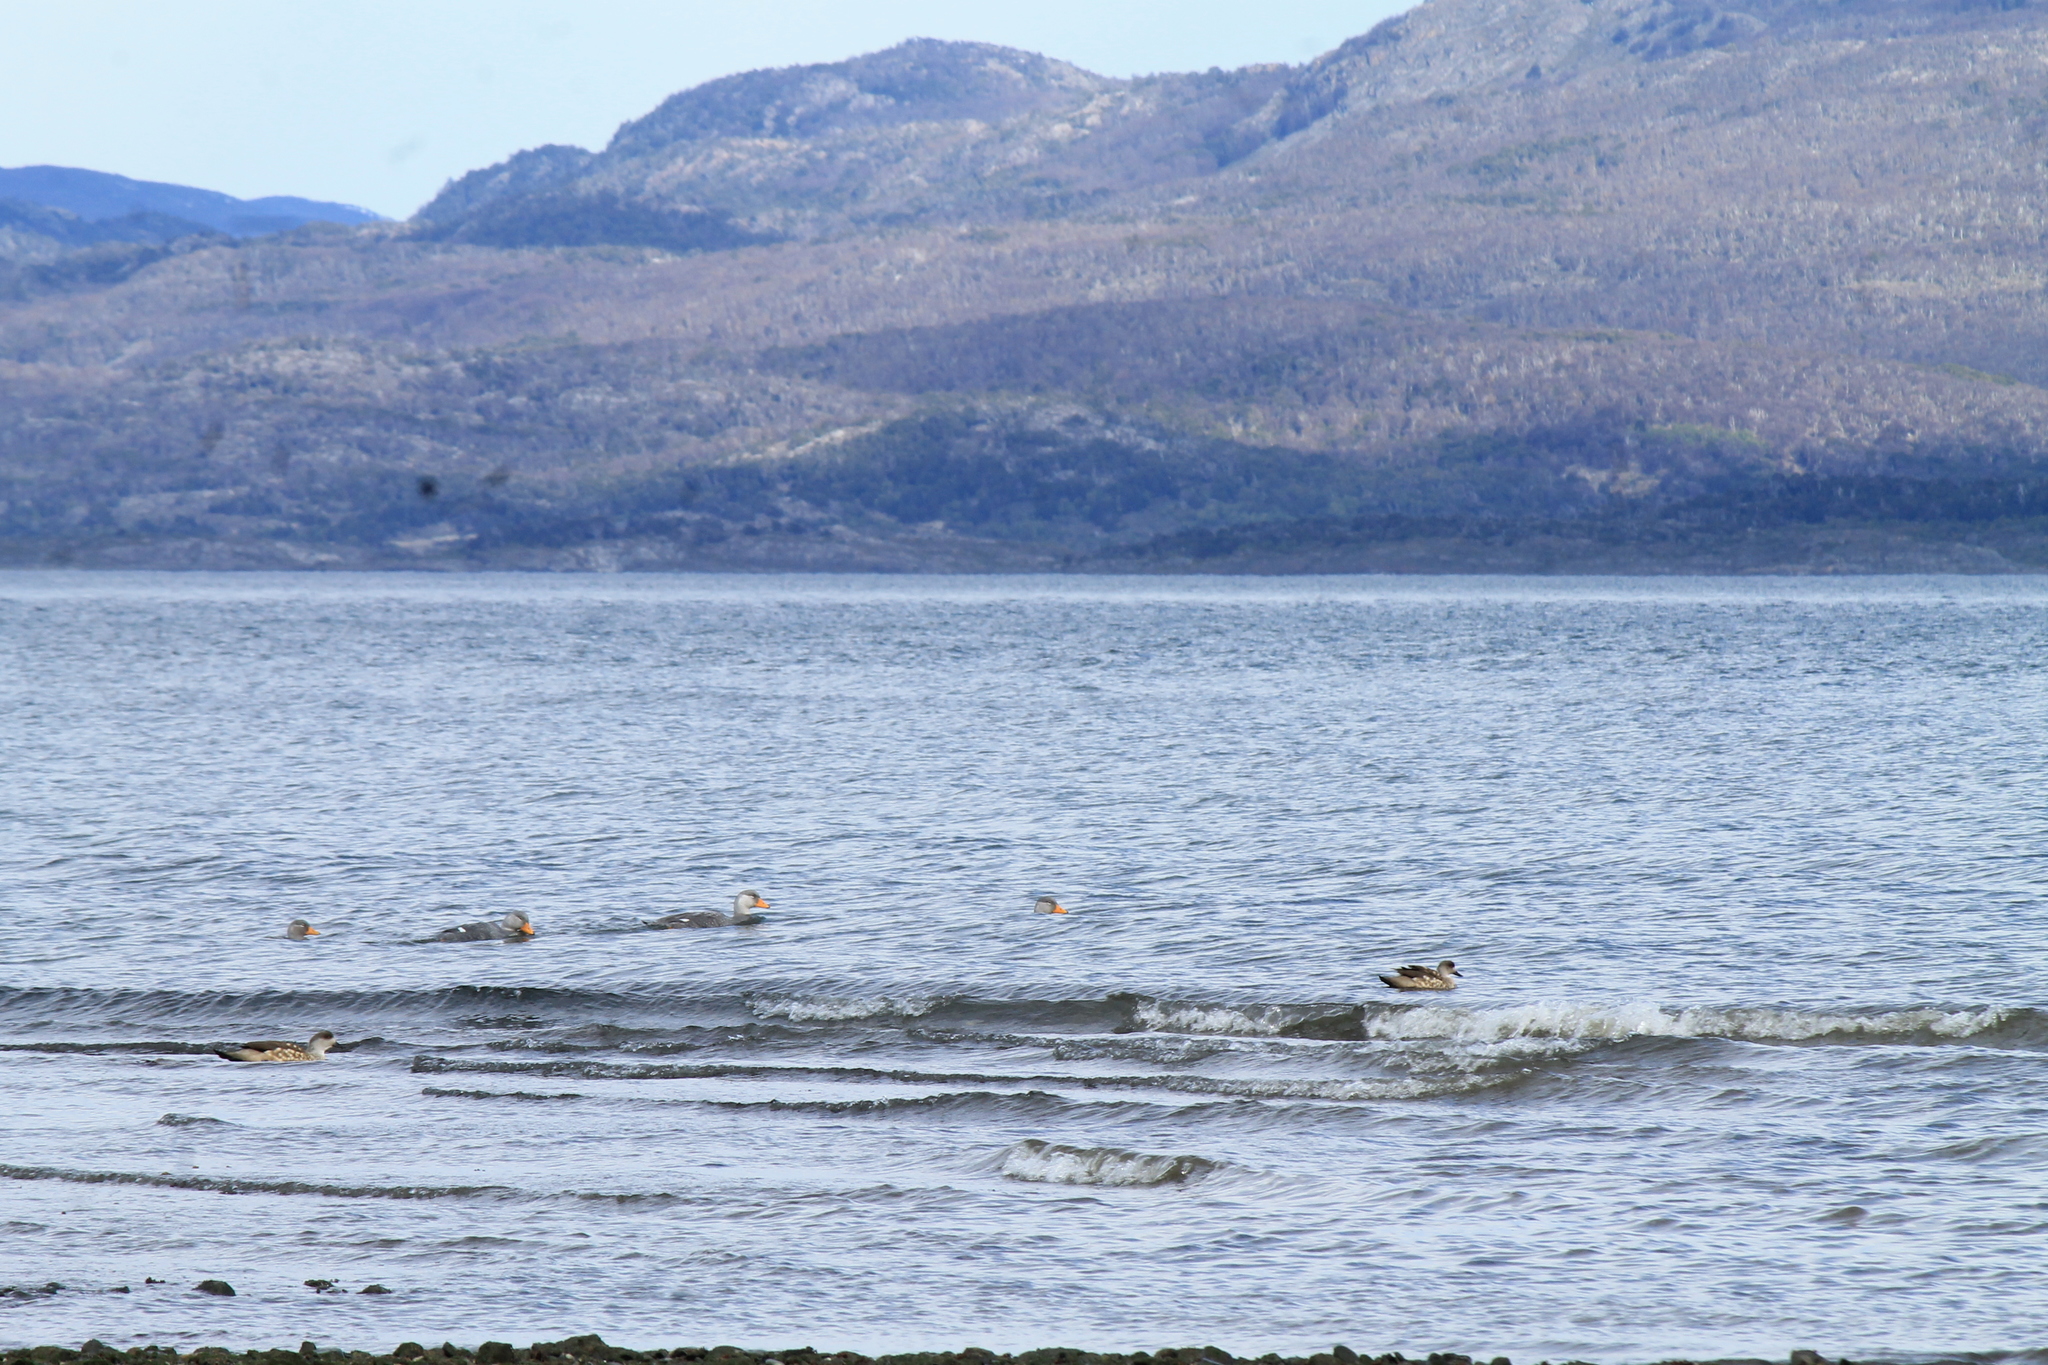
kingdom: Animalia
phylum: Chordata
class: Aves
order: Anseriformes
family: Anatidae
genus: Tachyeres
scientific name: Tachyeres pteneres
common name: Fuegian steamer duck
